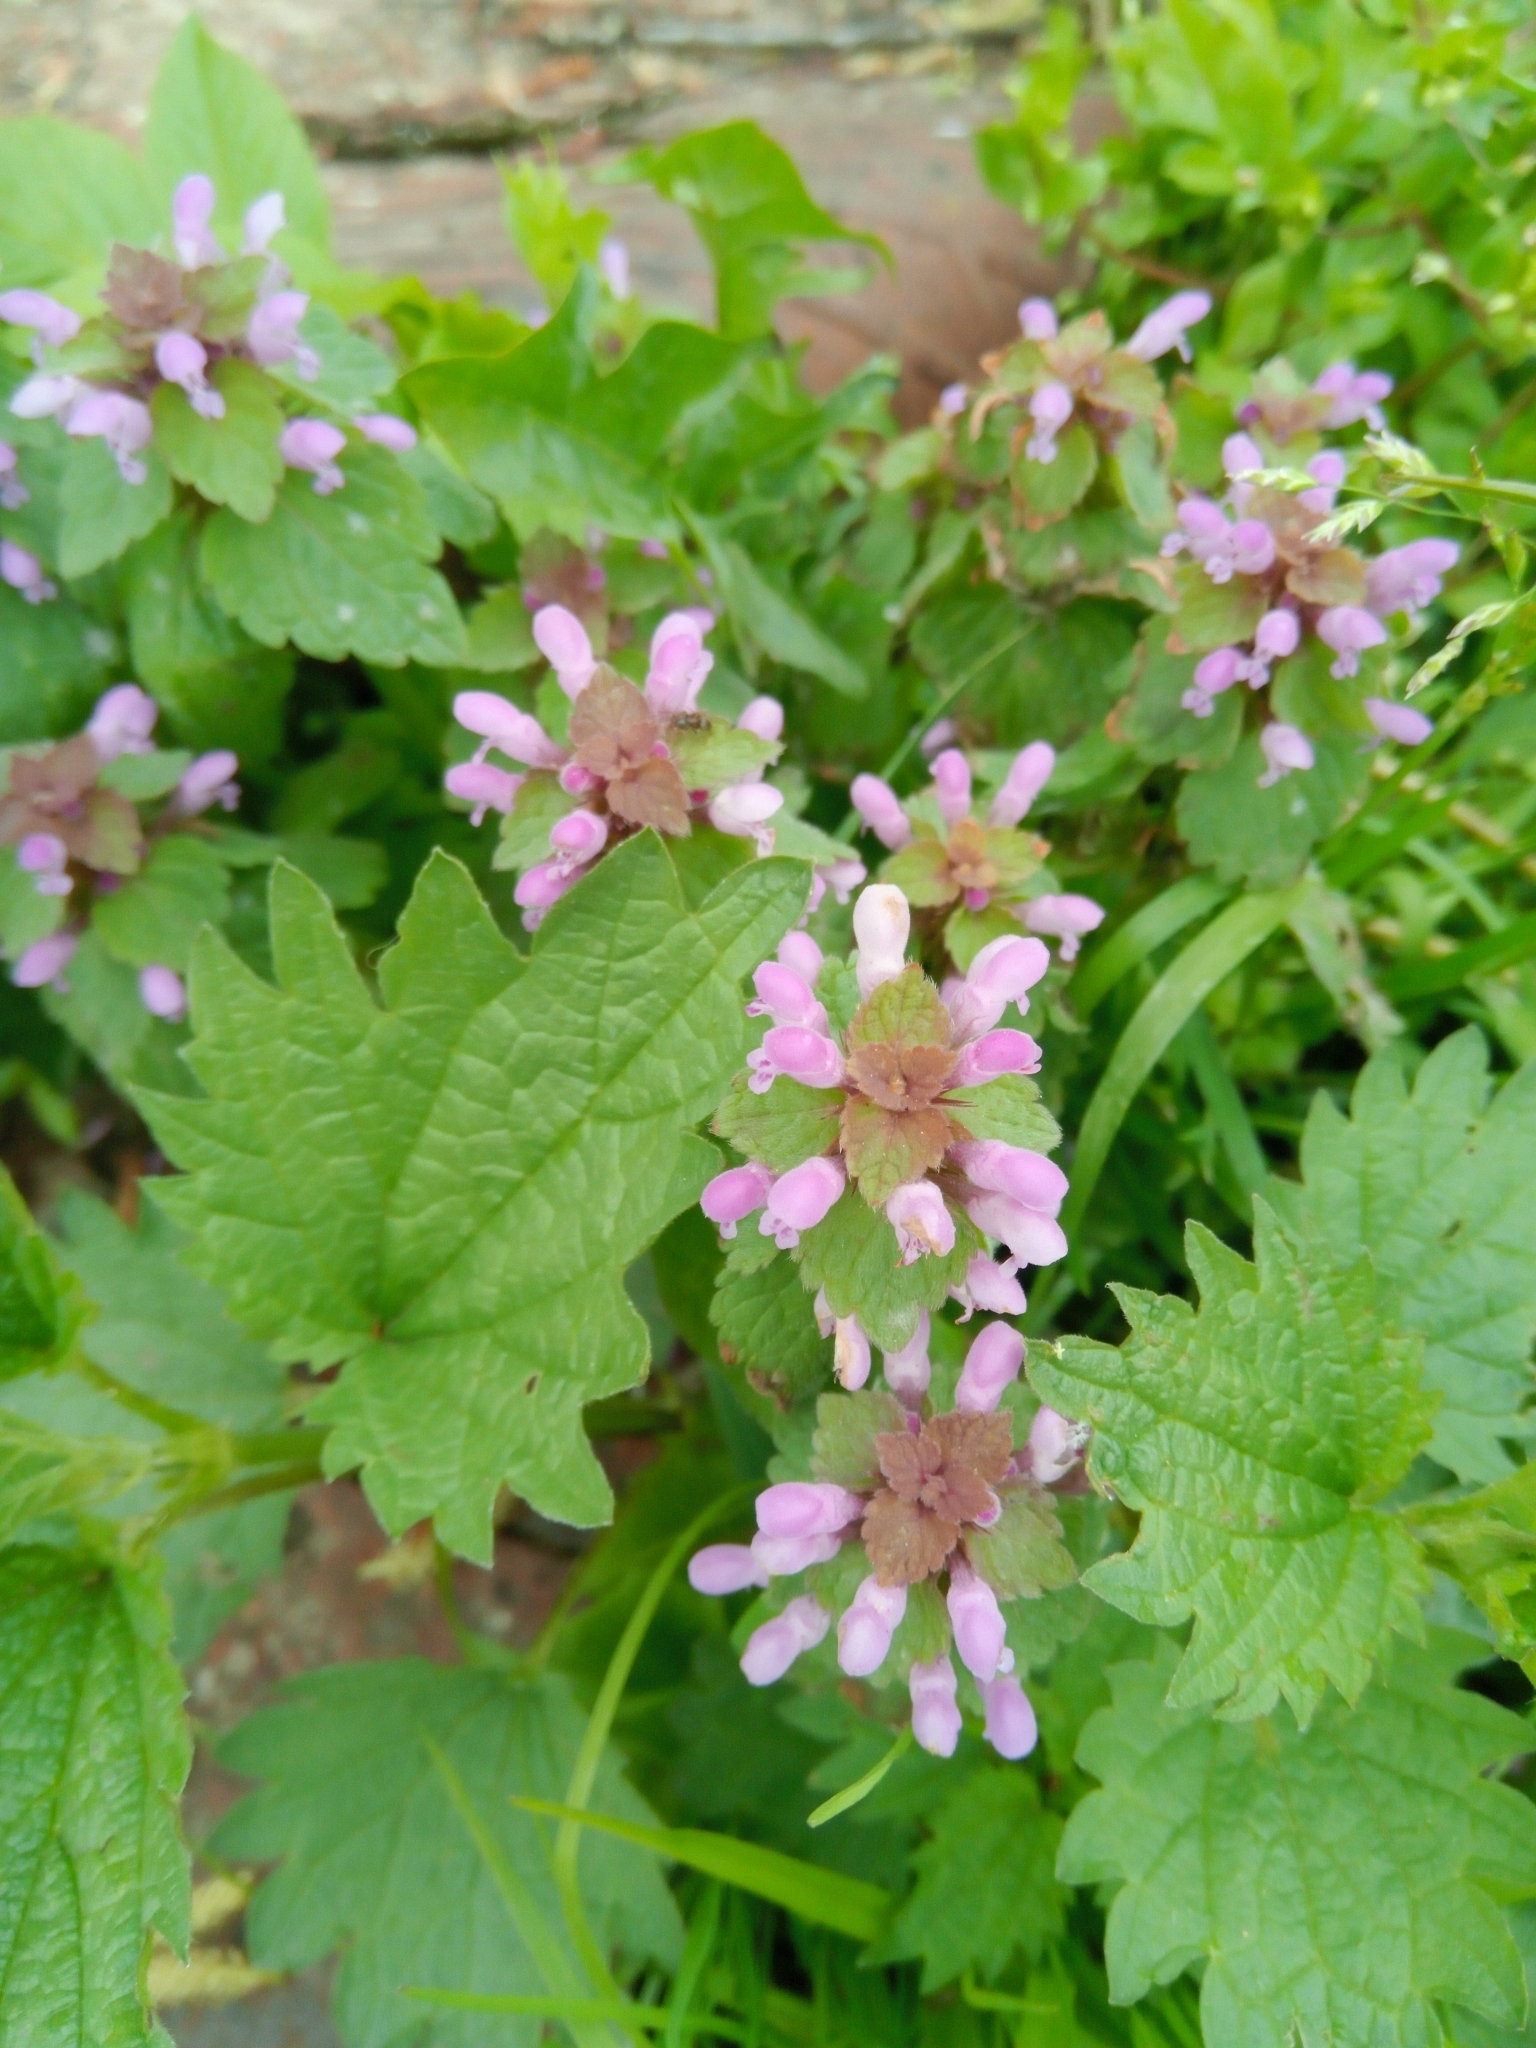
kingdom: Plantae
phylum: Tracheophyta
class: Magnoliopsida
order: Lamiales
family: Lamiaceae
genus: Lamium
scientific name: Lamium purpureum
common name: Red dead-nettle
